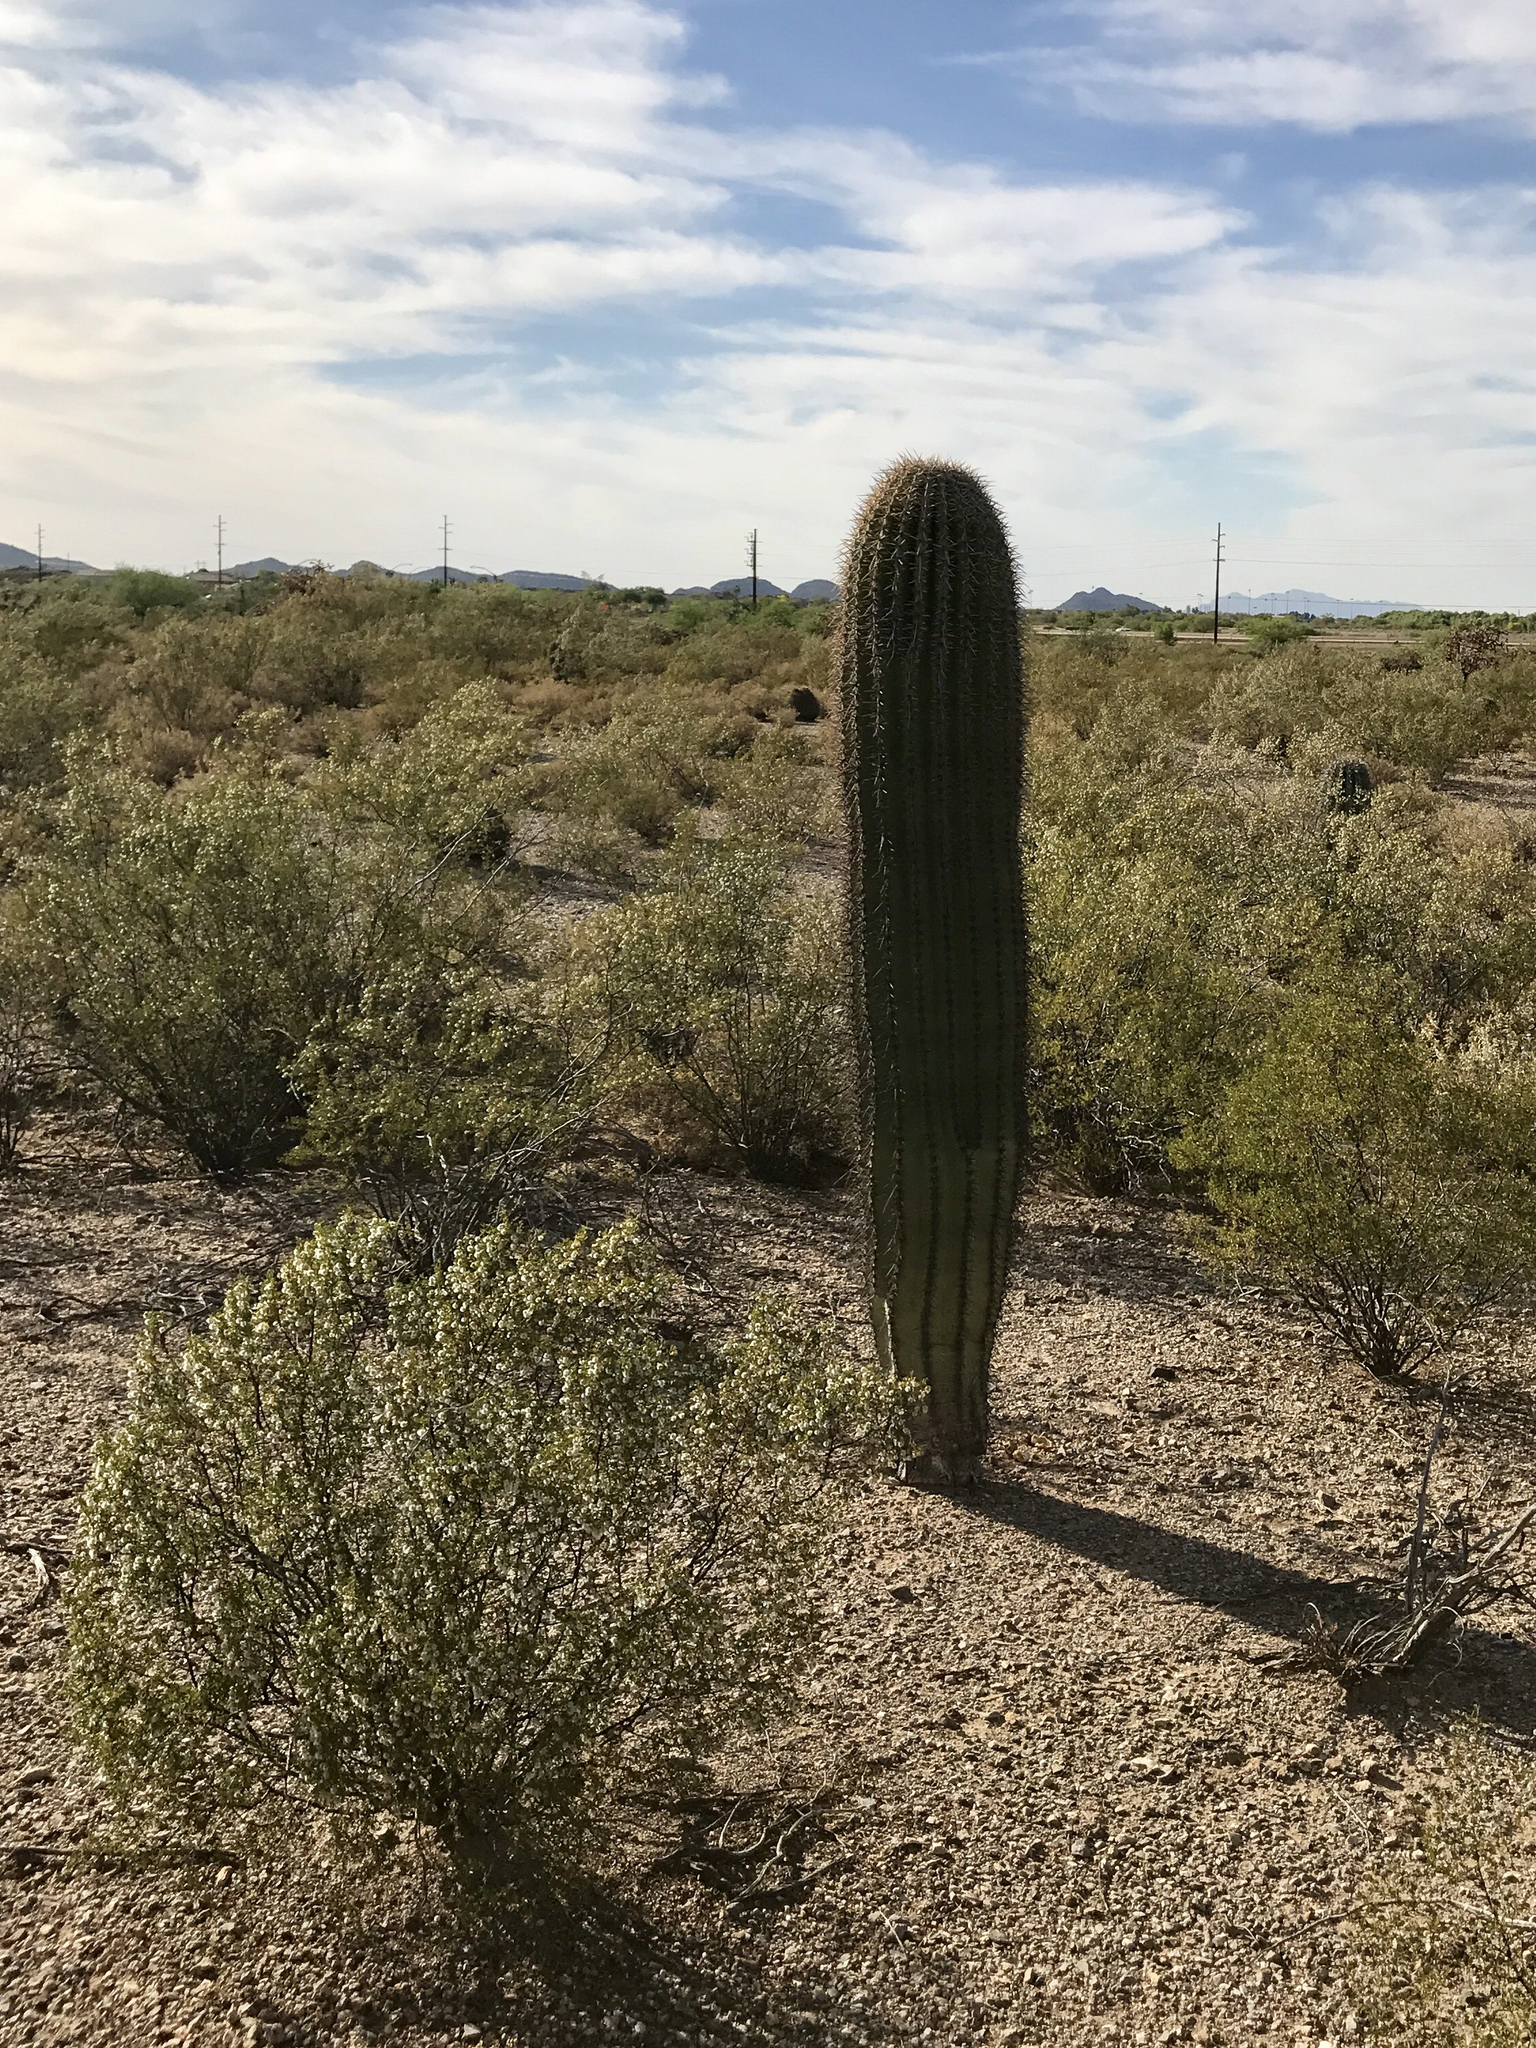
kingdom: Plantae
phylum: Tracheophyta
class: Magnoliopsida
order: Zygophyllales
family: Zygophyllaceae
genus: Larrea
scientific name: Larrea tridentata
